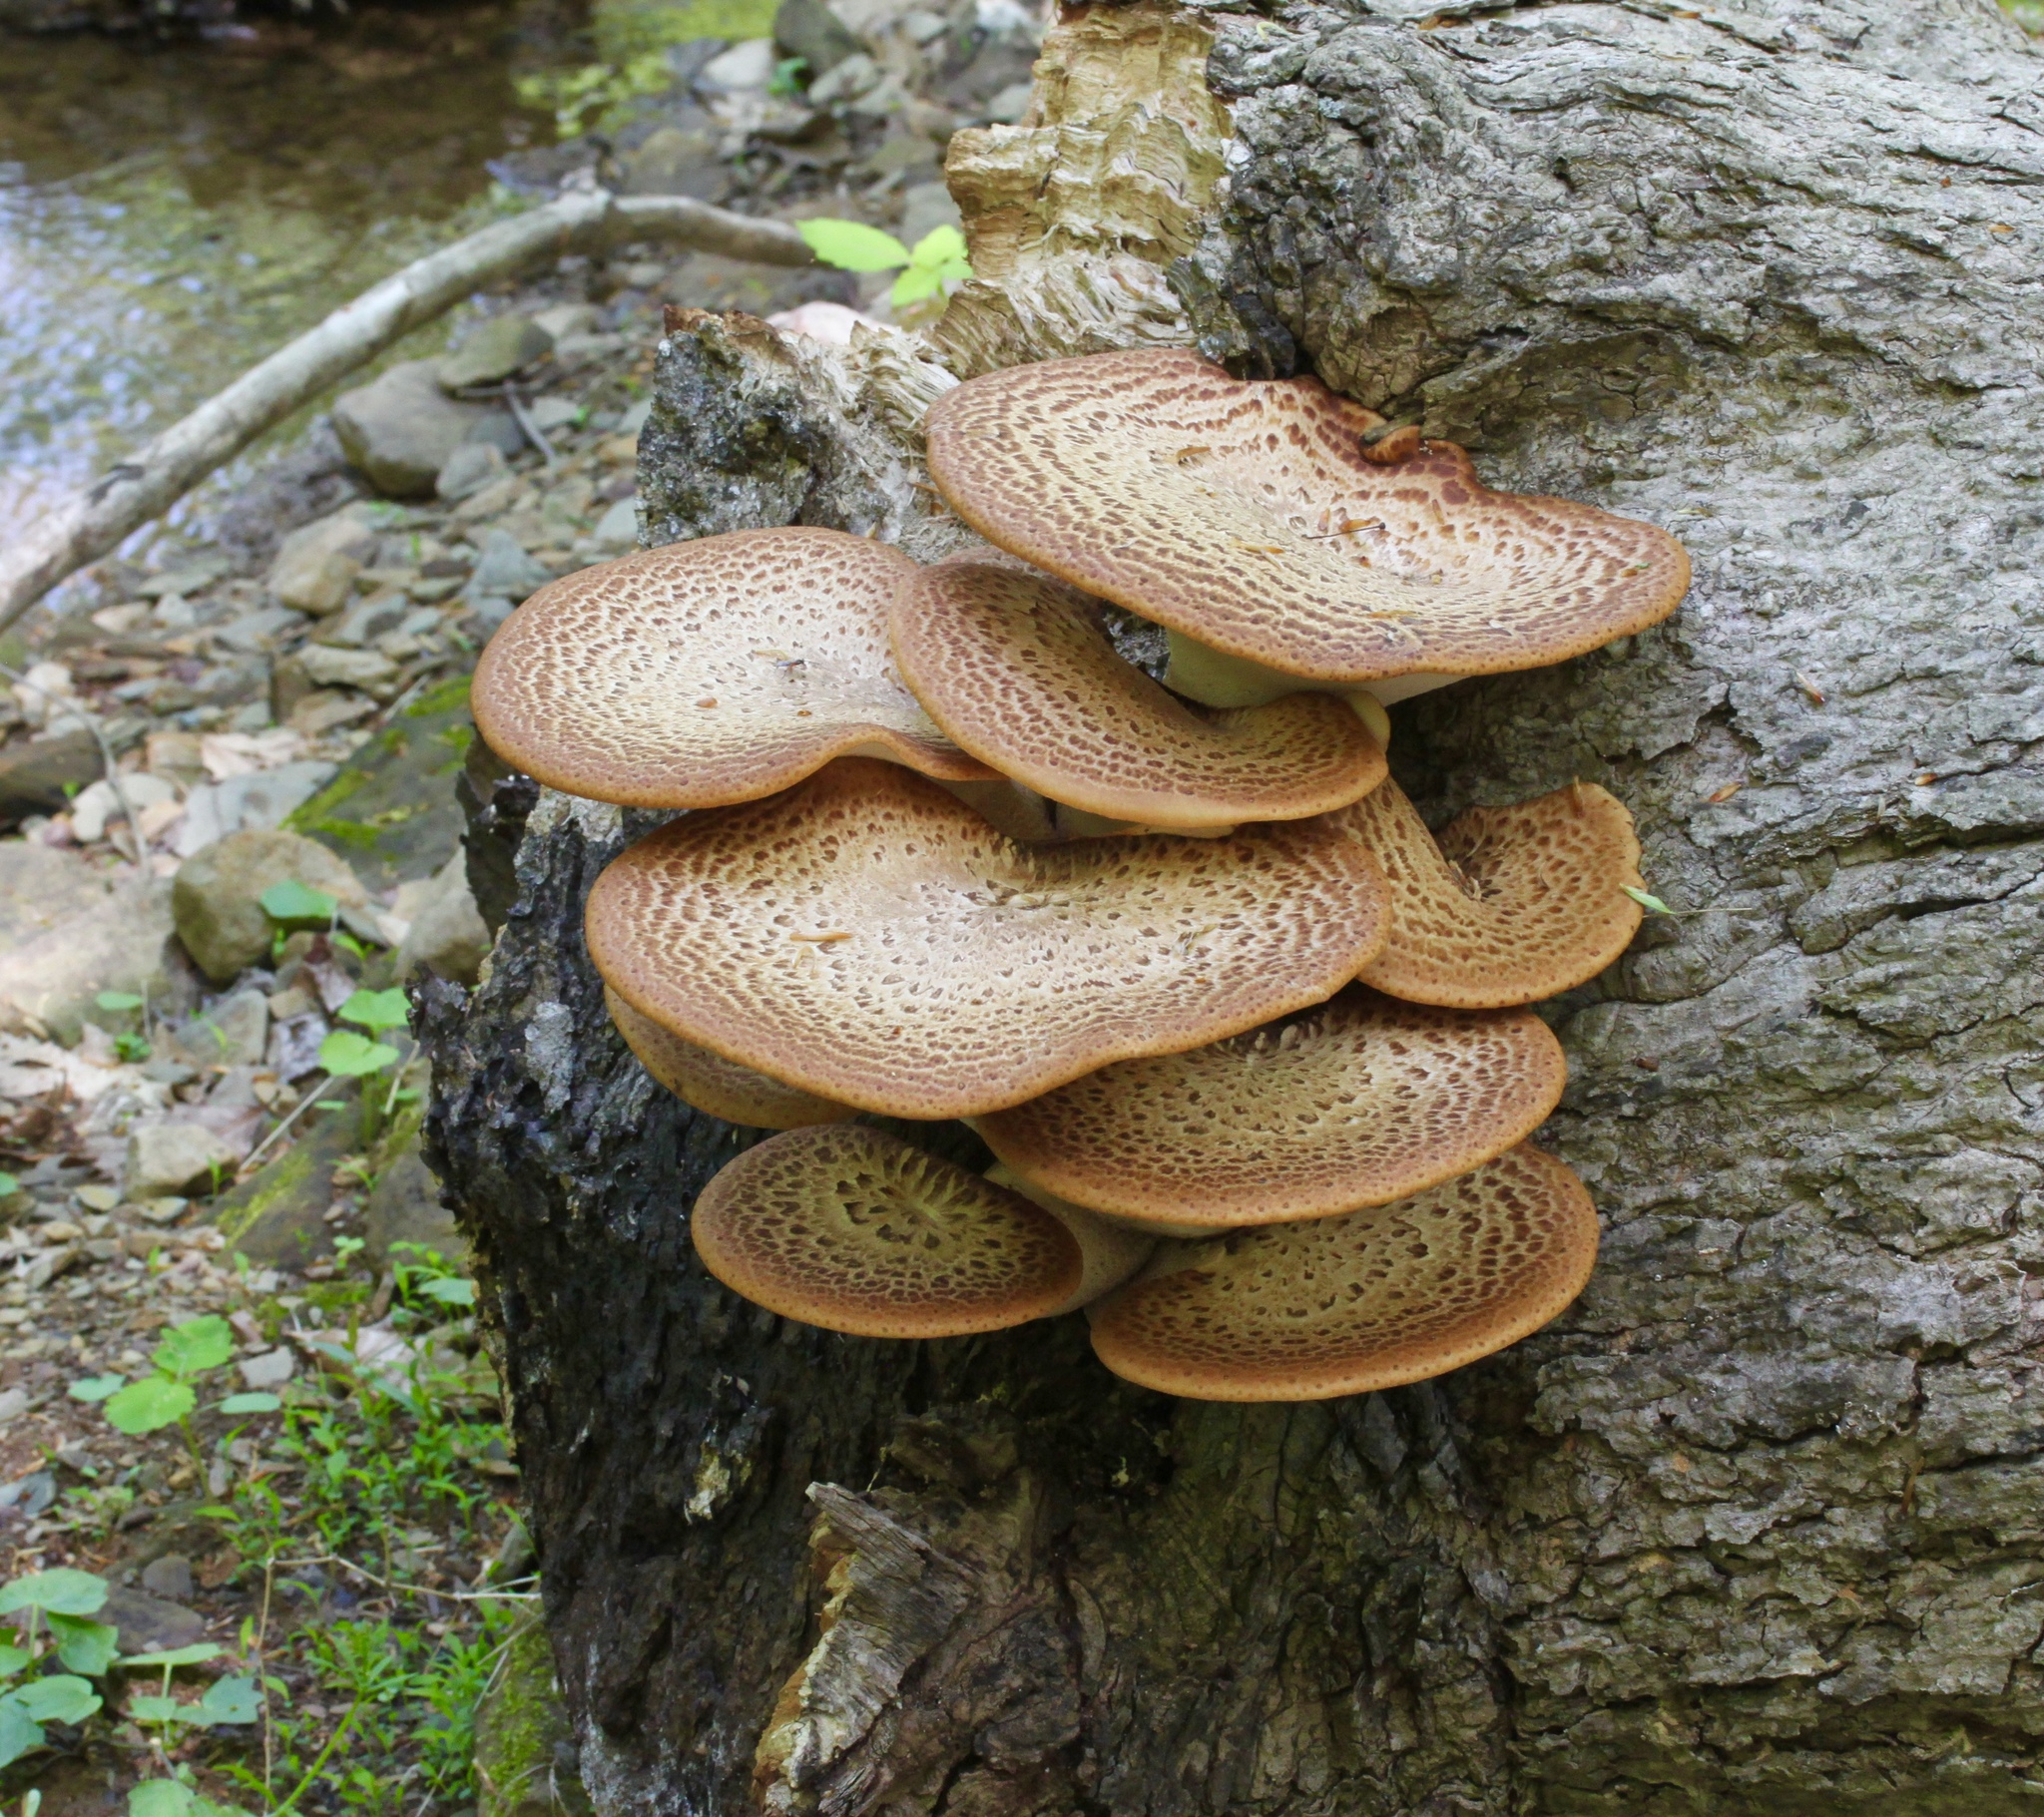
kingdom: Fungi
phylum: Basidiomycota
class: Agaricomycetes
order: Polyporales
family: Polyporaceae
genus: Cerioporus
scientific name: Cerioporus squamosus
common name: Dryad's saddle
